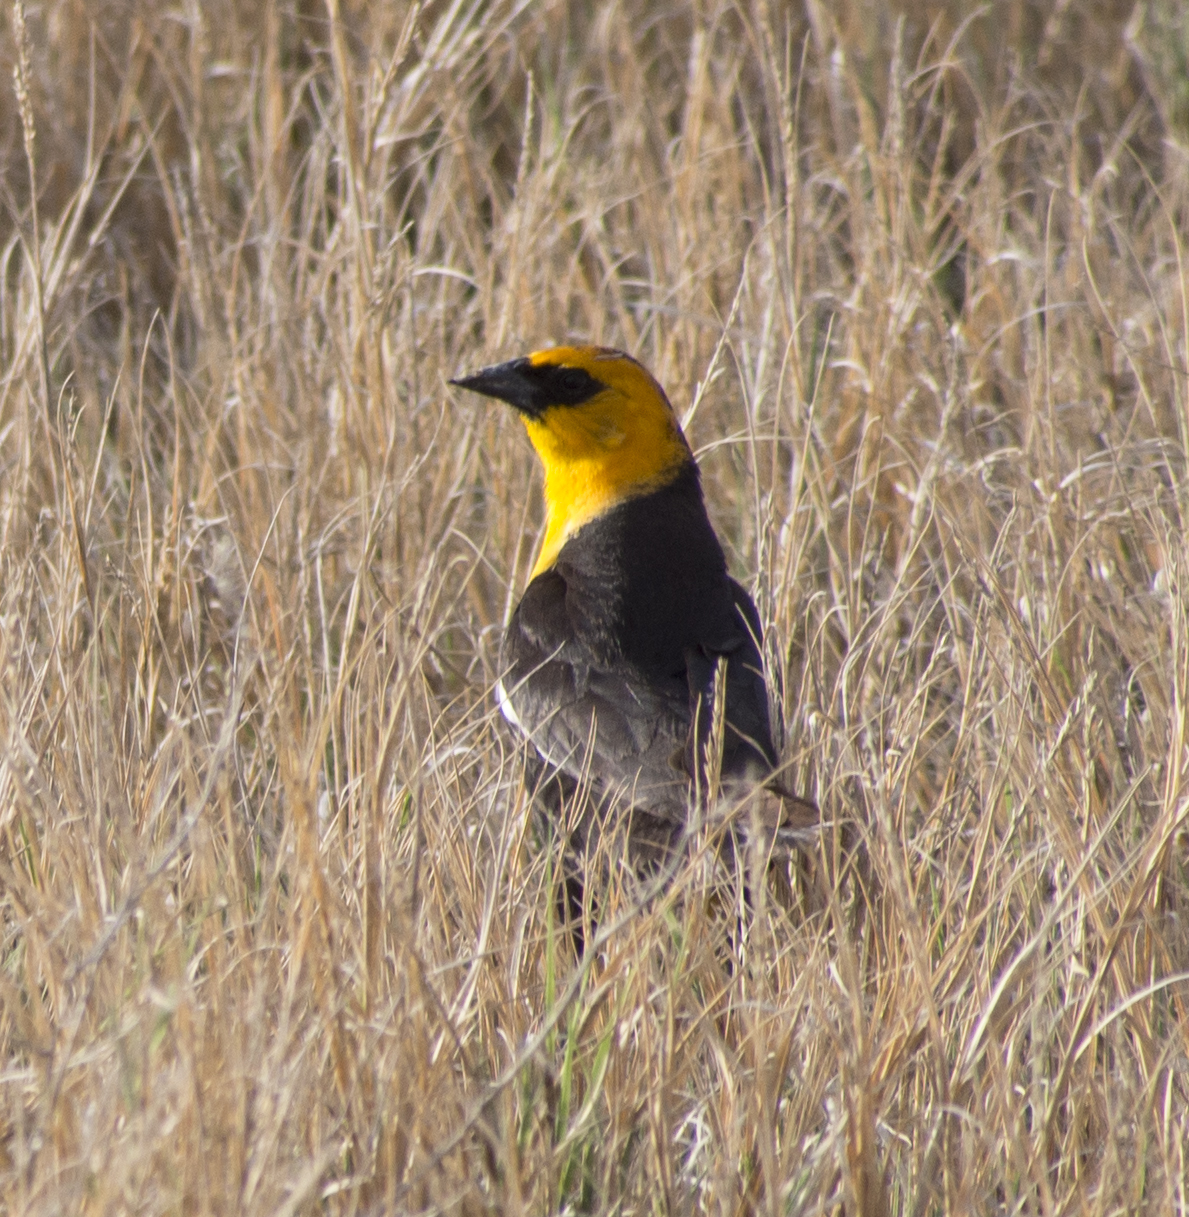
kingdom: Animalia
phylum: Chordata
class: Aves
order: Passeriformes
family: Icteridae
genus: Xanthocephalus
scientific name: Xanthocephalus xanthocephalus
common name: Yellow-headed blackbird
